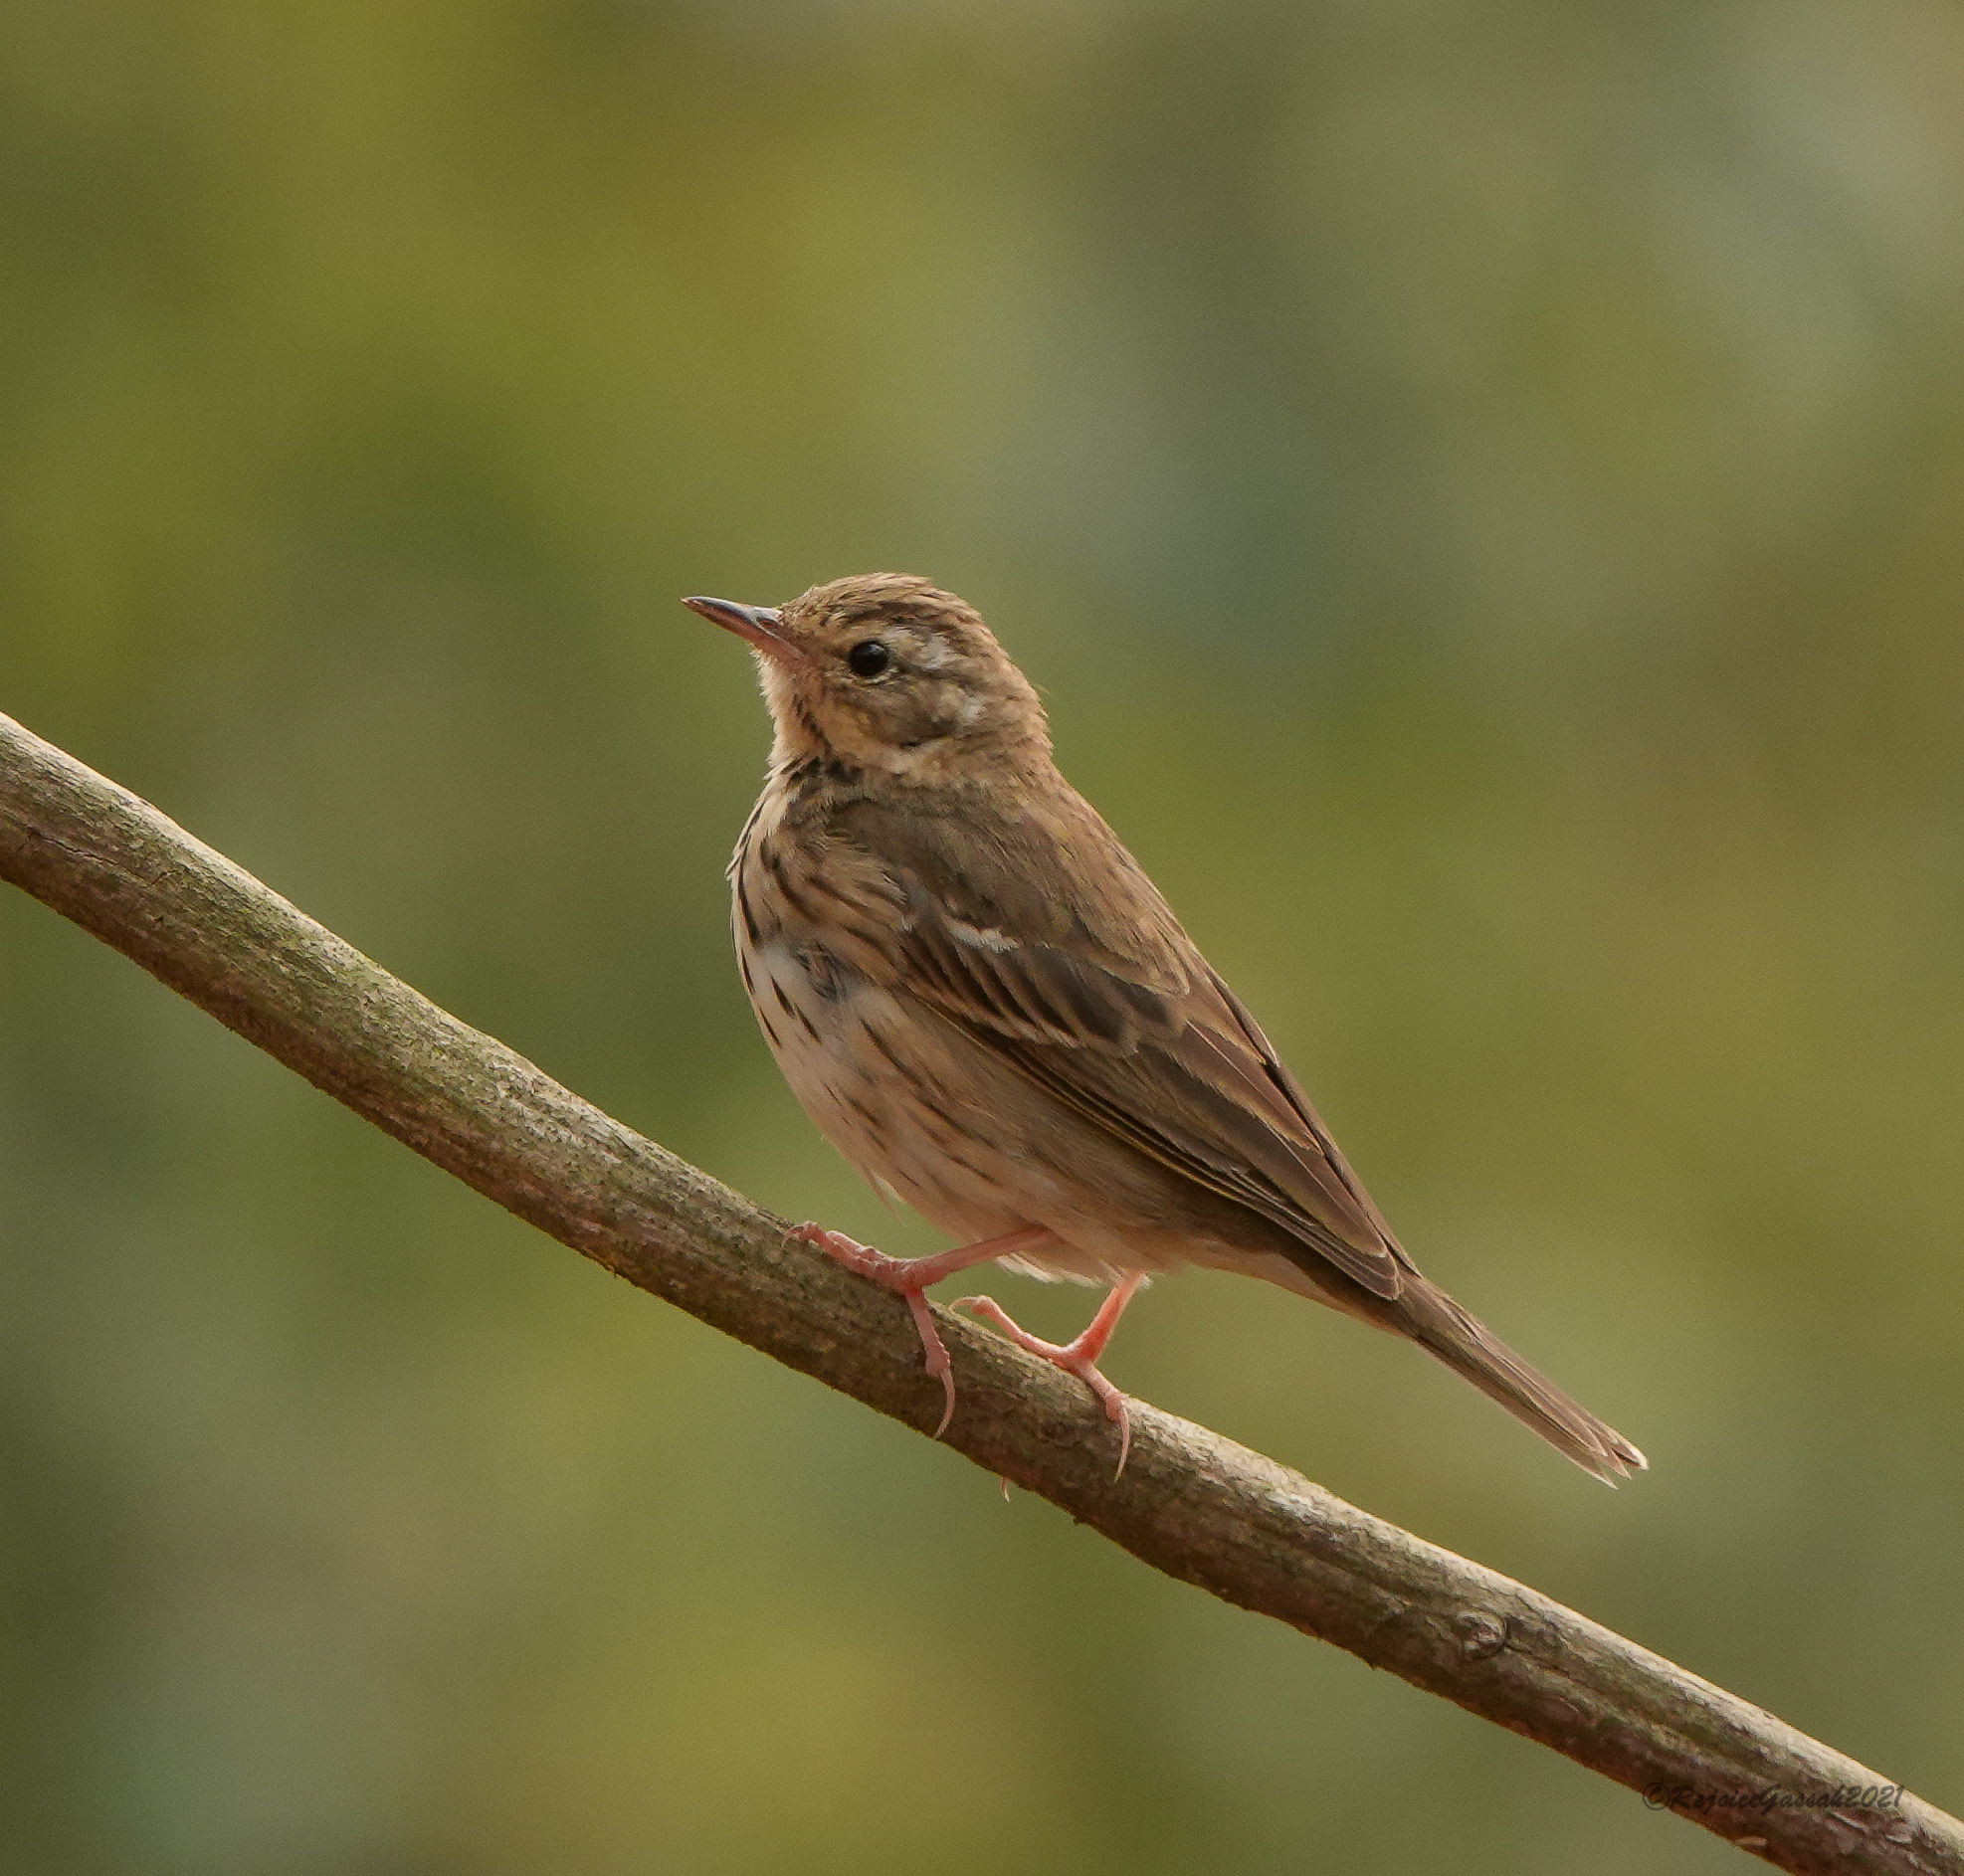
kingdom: Animalia
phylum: Chordata
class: Aves
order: Passeriformes
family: Motacillidae
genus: Anthus
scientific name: Anthus hodgsoni
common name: Olive-backed pipit
